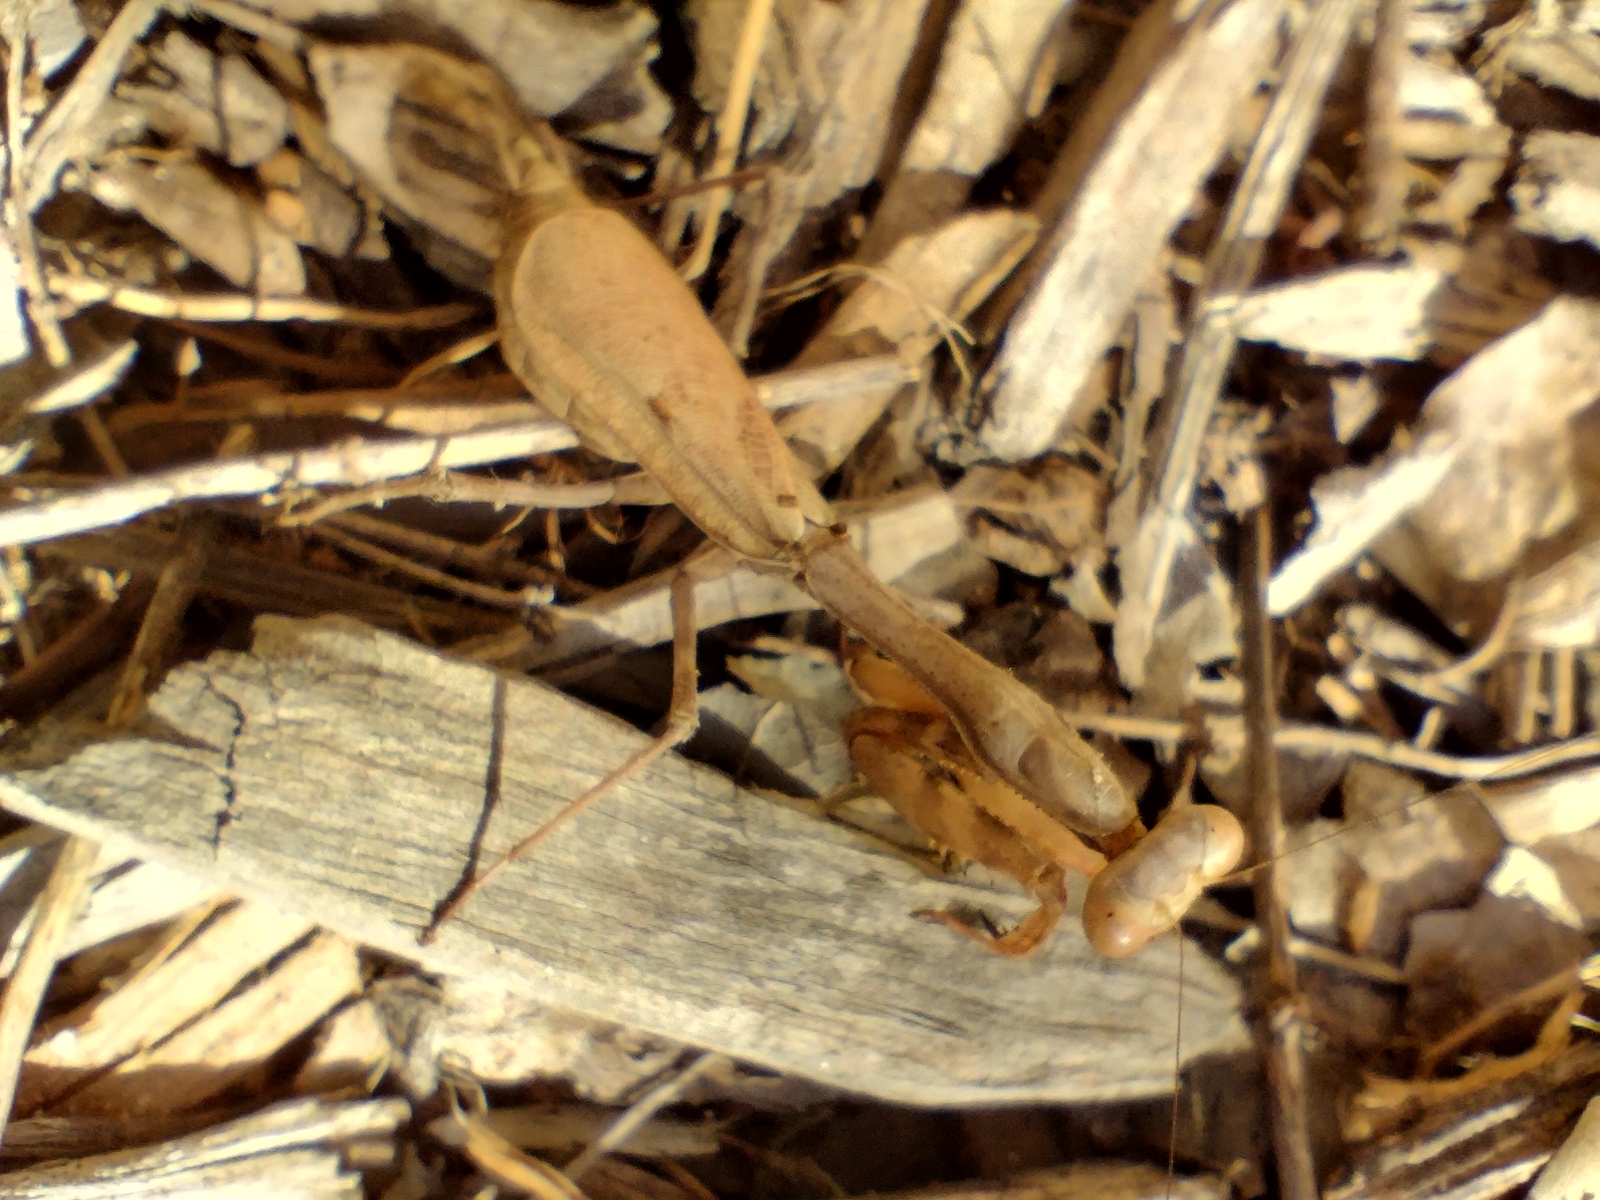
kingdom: Animalia
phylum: Arthropoda
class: Insecta
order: Mantodea
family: Mantidae
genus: Stagmomantis
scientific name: Stagmomantis limbata
